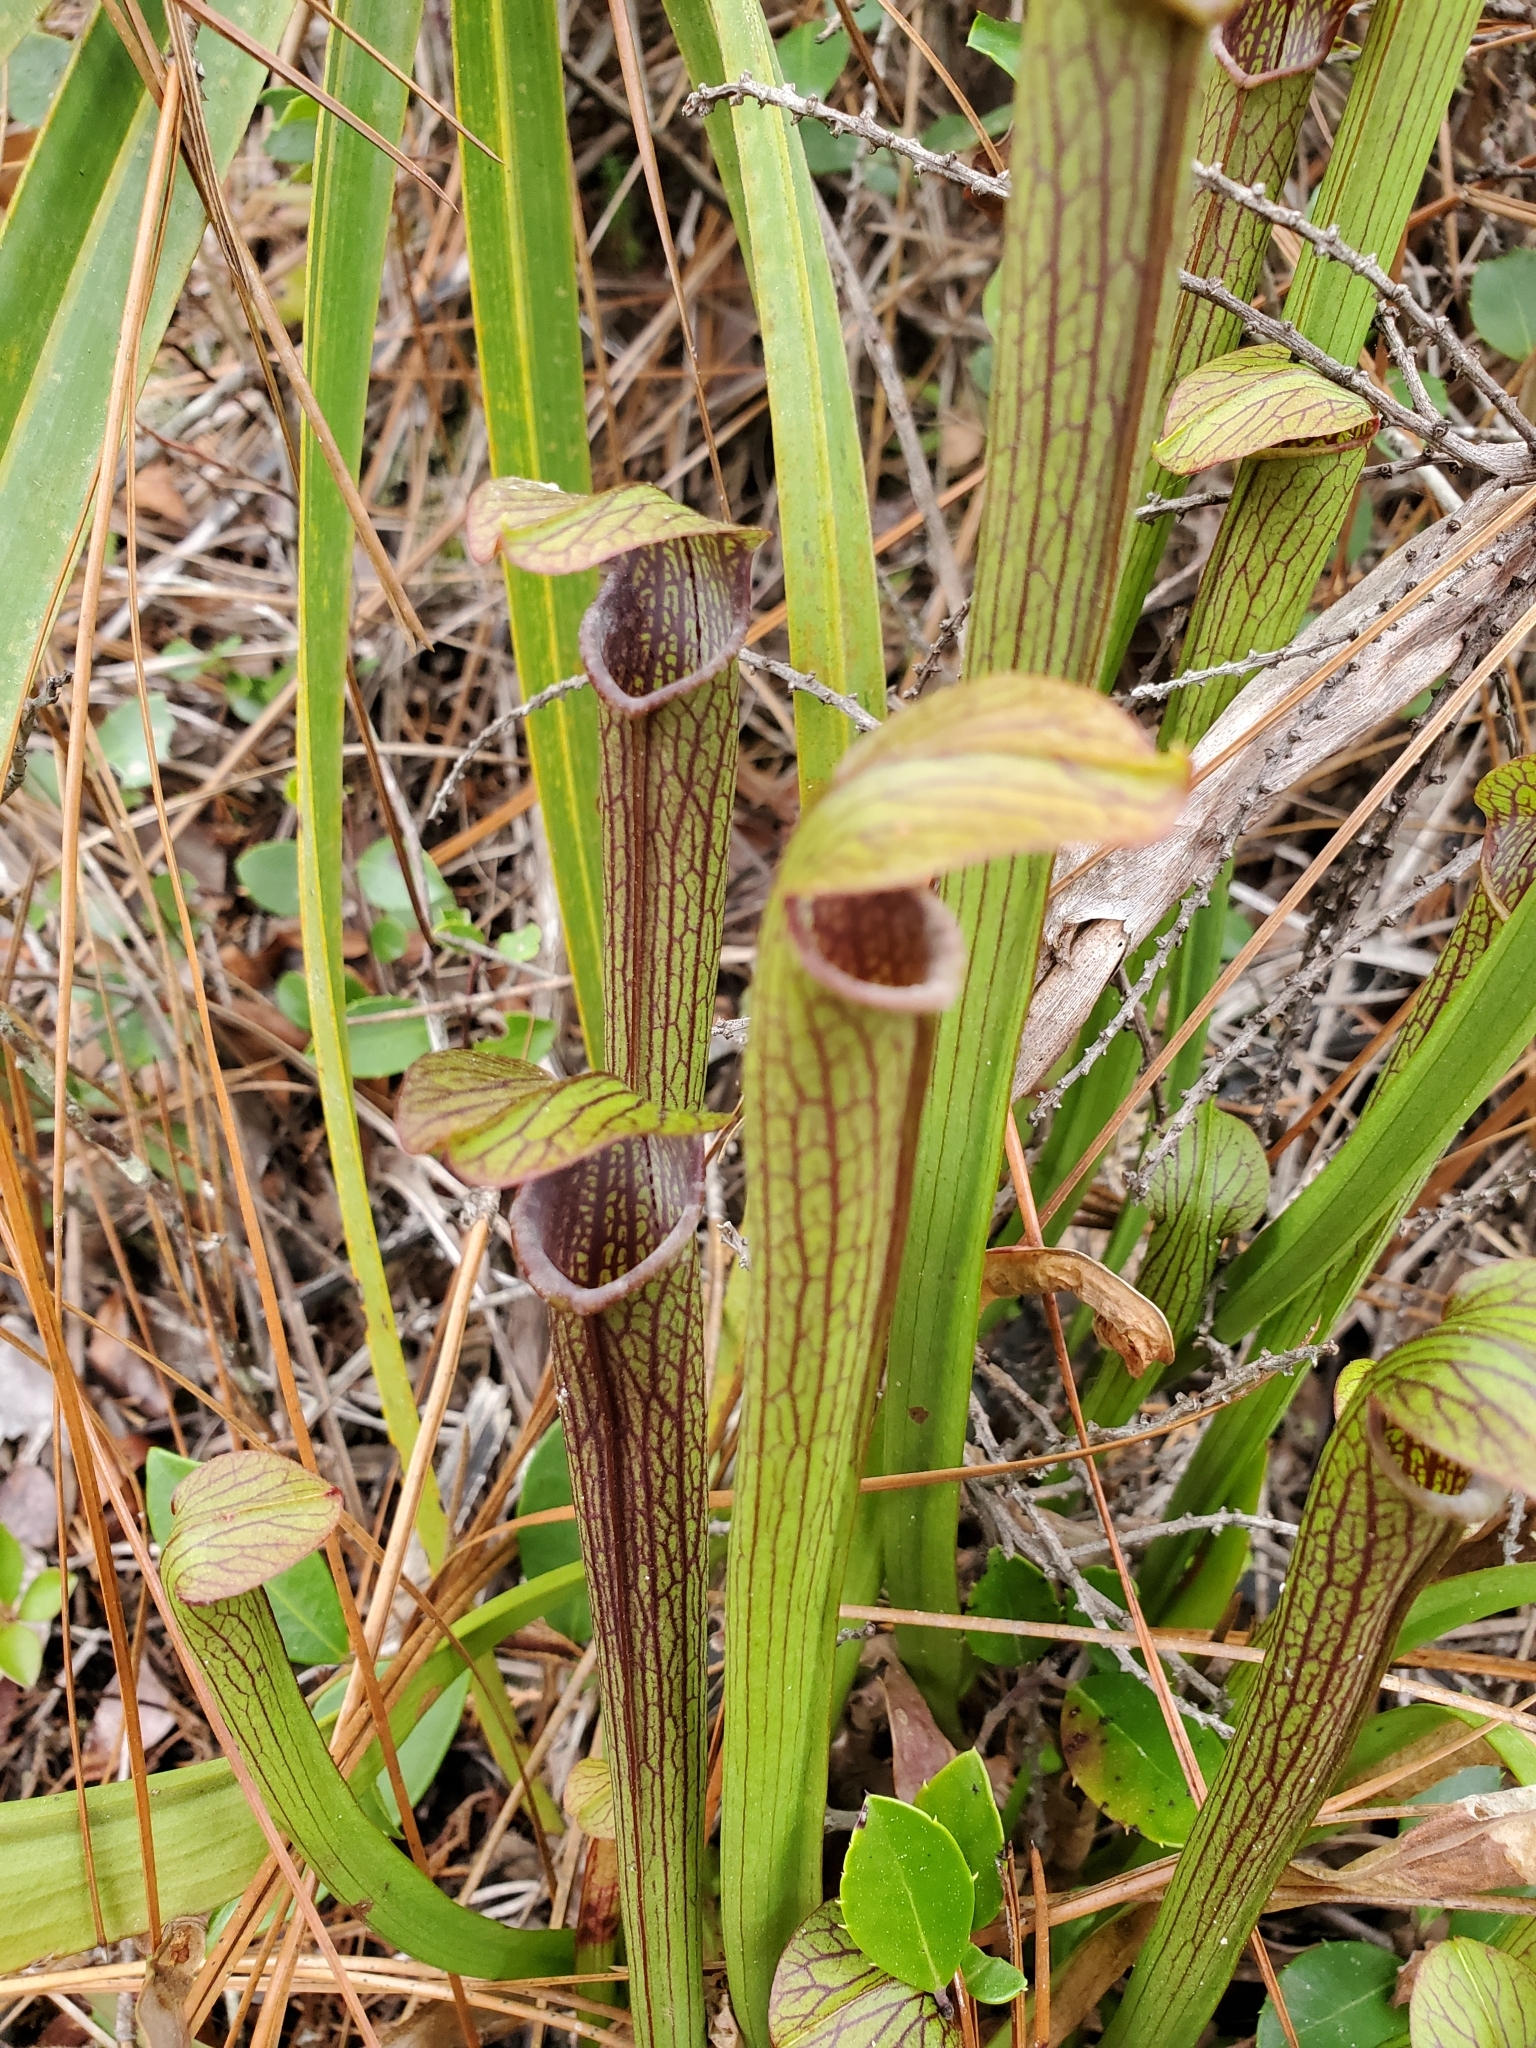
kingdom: Plantae
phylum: Tracheophyta
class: Magnoliopsida
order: Ericales
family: Sarraceniaceae
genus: Sarracenia
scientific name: Sarracenia rubra
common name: Sweet pitcherplant
